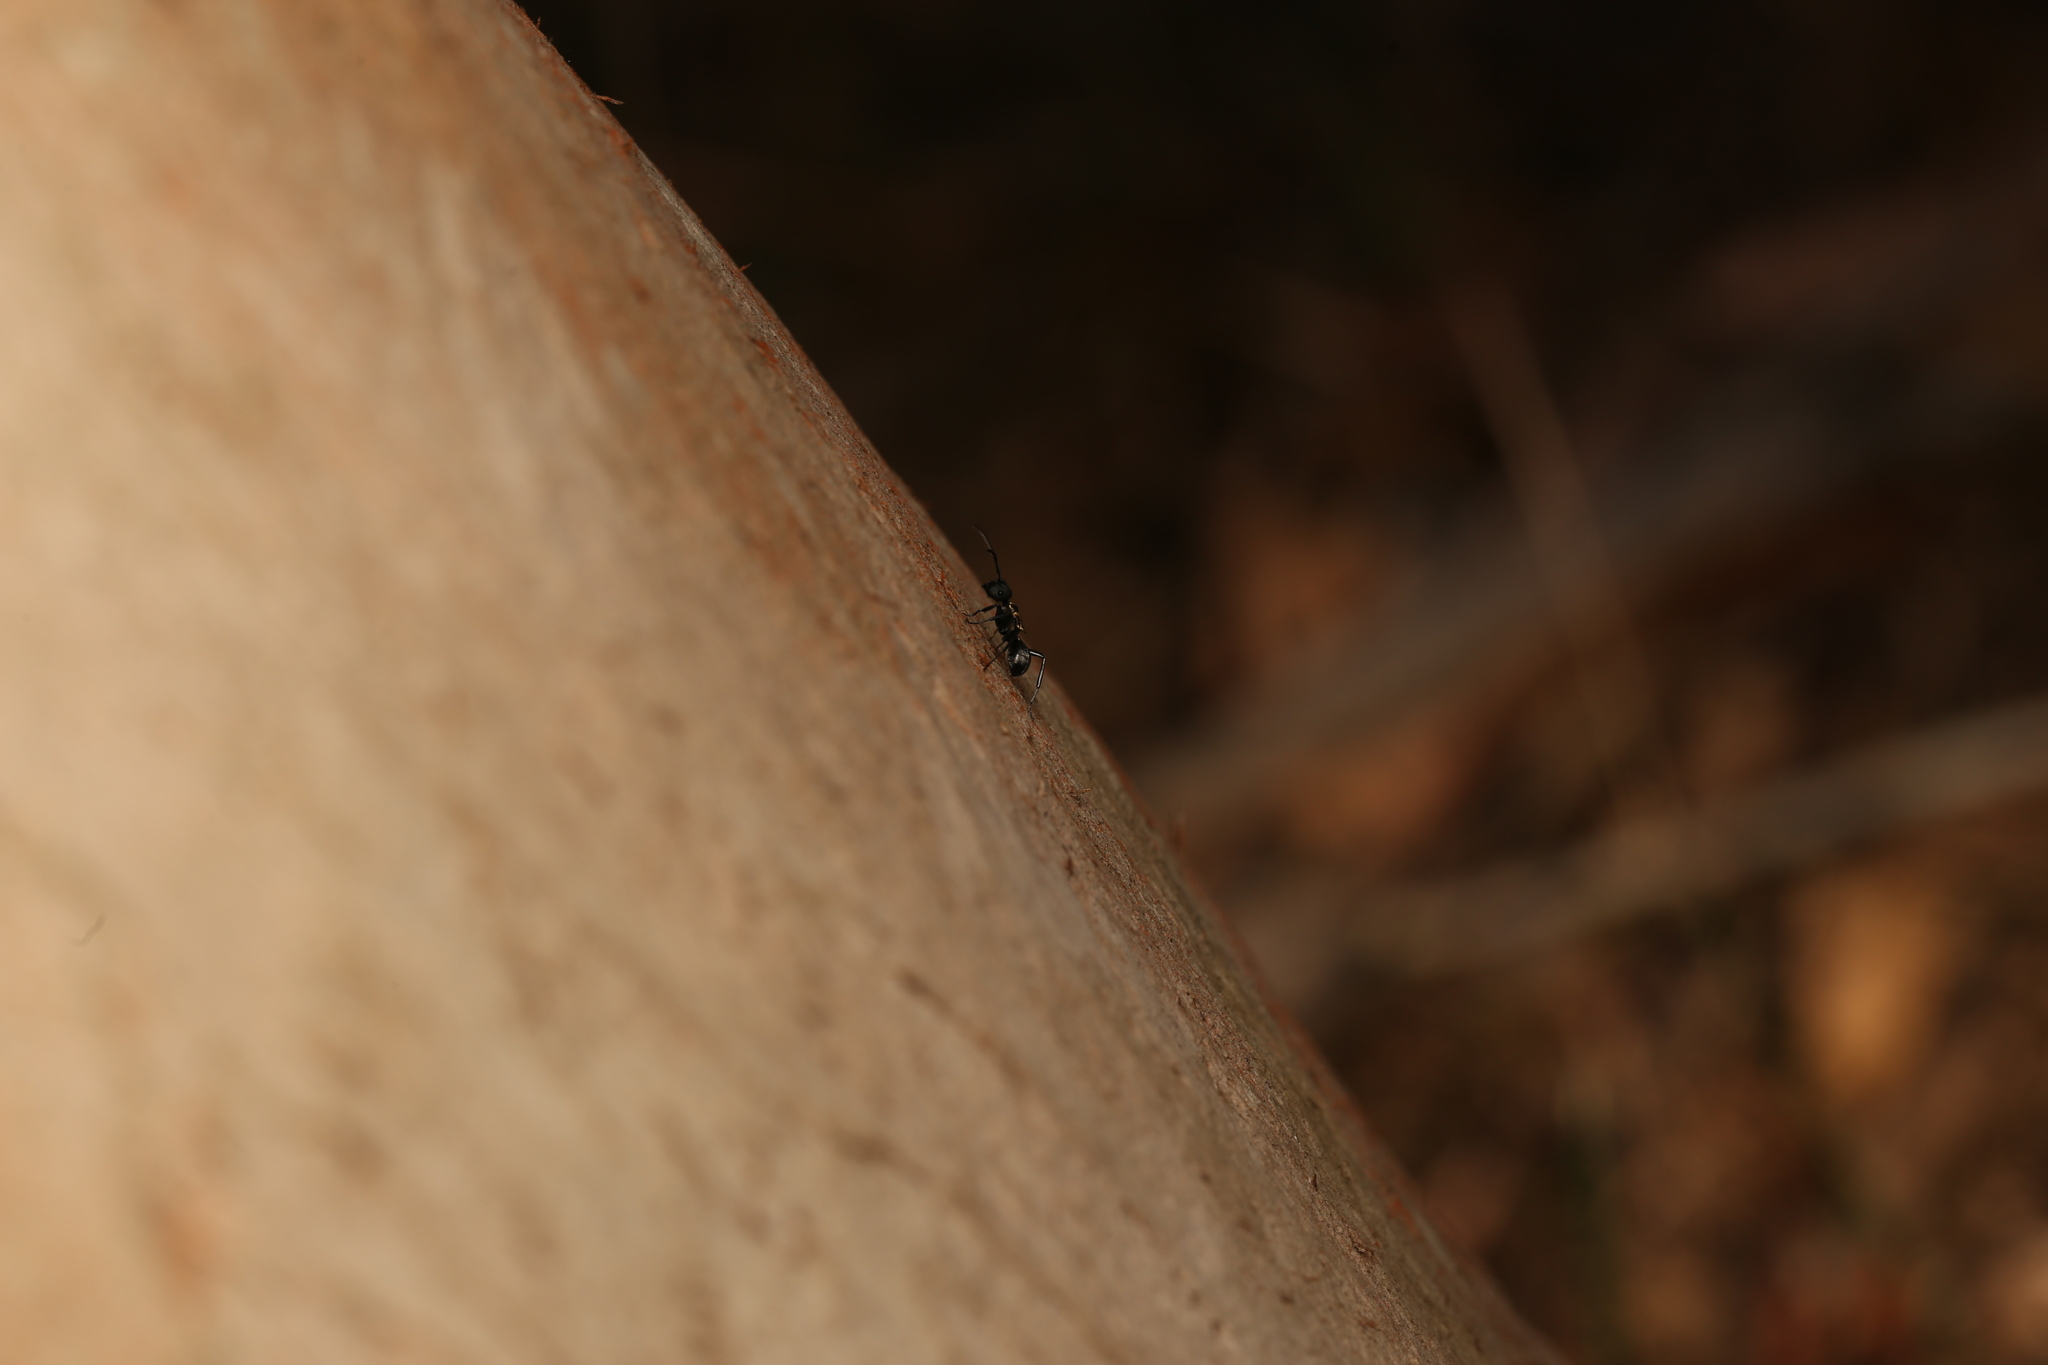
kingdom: Animalia
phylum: Arthropoda
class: Insecta
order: Hymenoptera
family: Formicidae
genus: Polyrhachis
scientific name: Polyrhachis ornata
